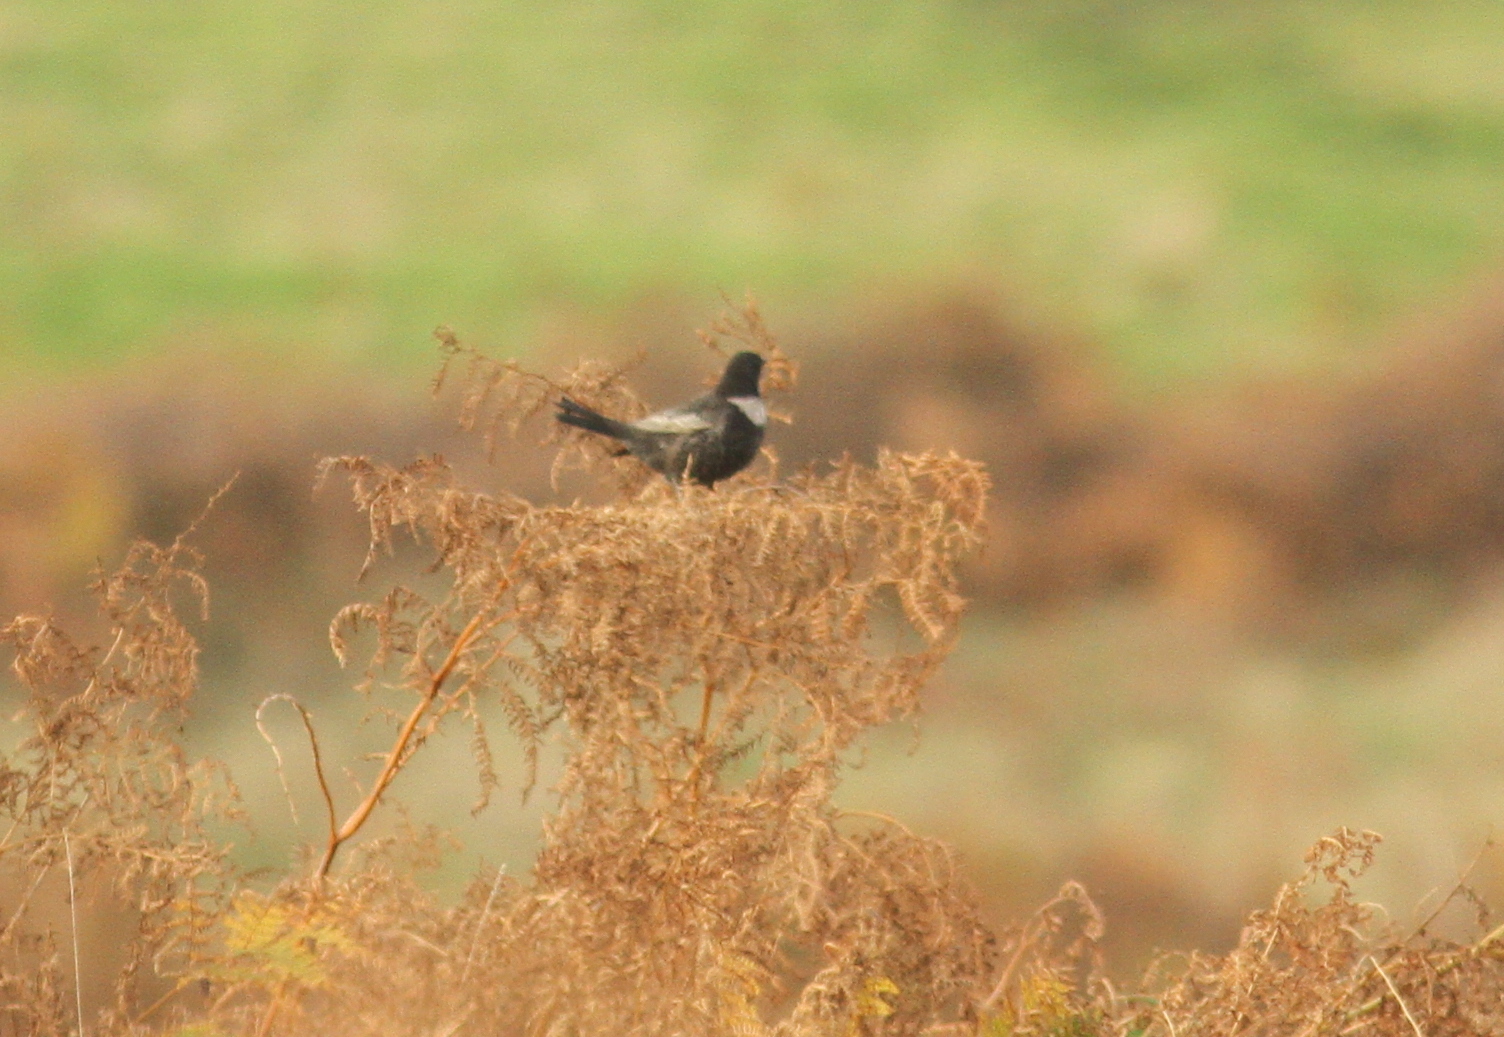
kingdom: Animalia
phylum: Chordata
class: Aves
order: Passeriformes
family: Turdidae
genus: Turdus
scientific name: Turdus torquatus
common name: Ring ouzel
